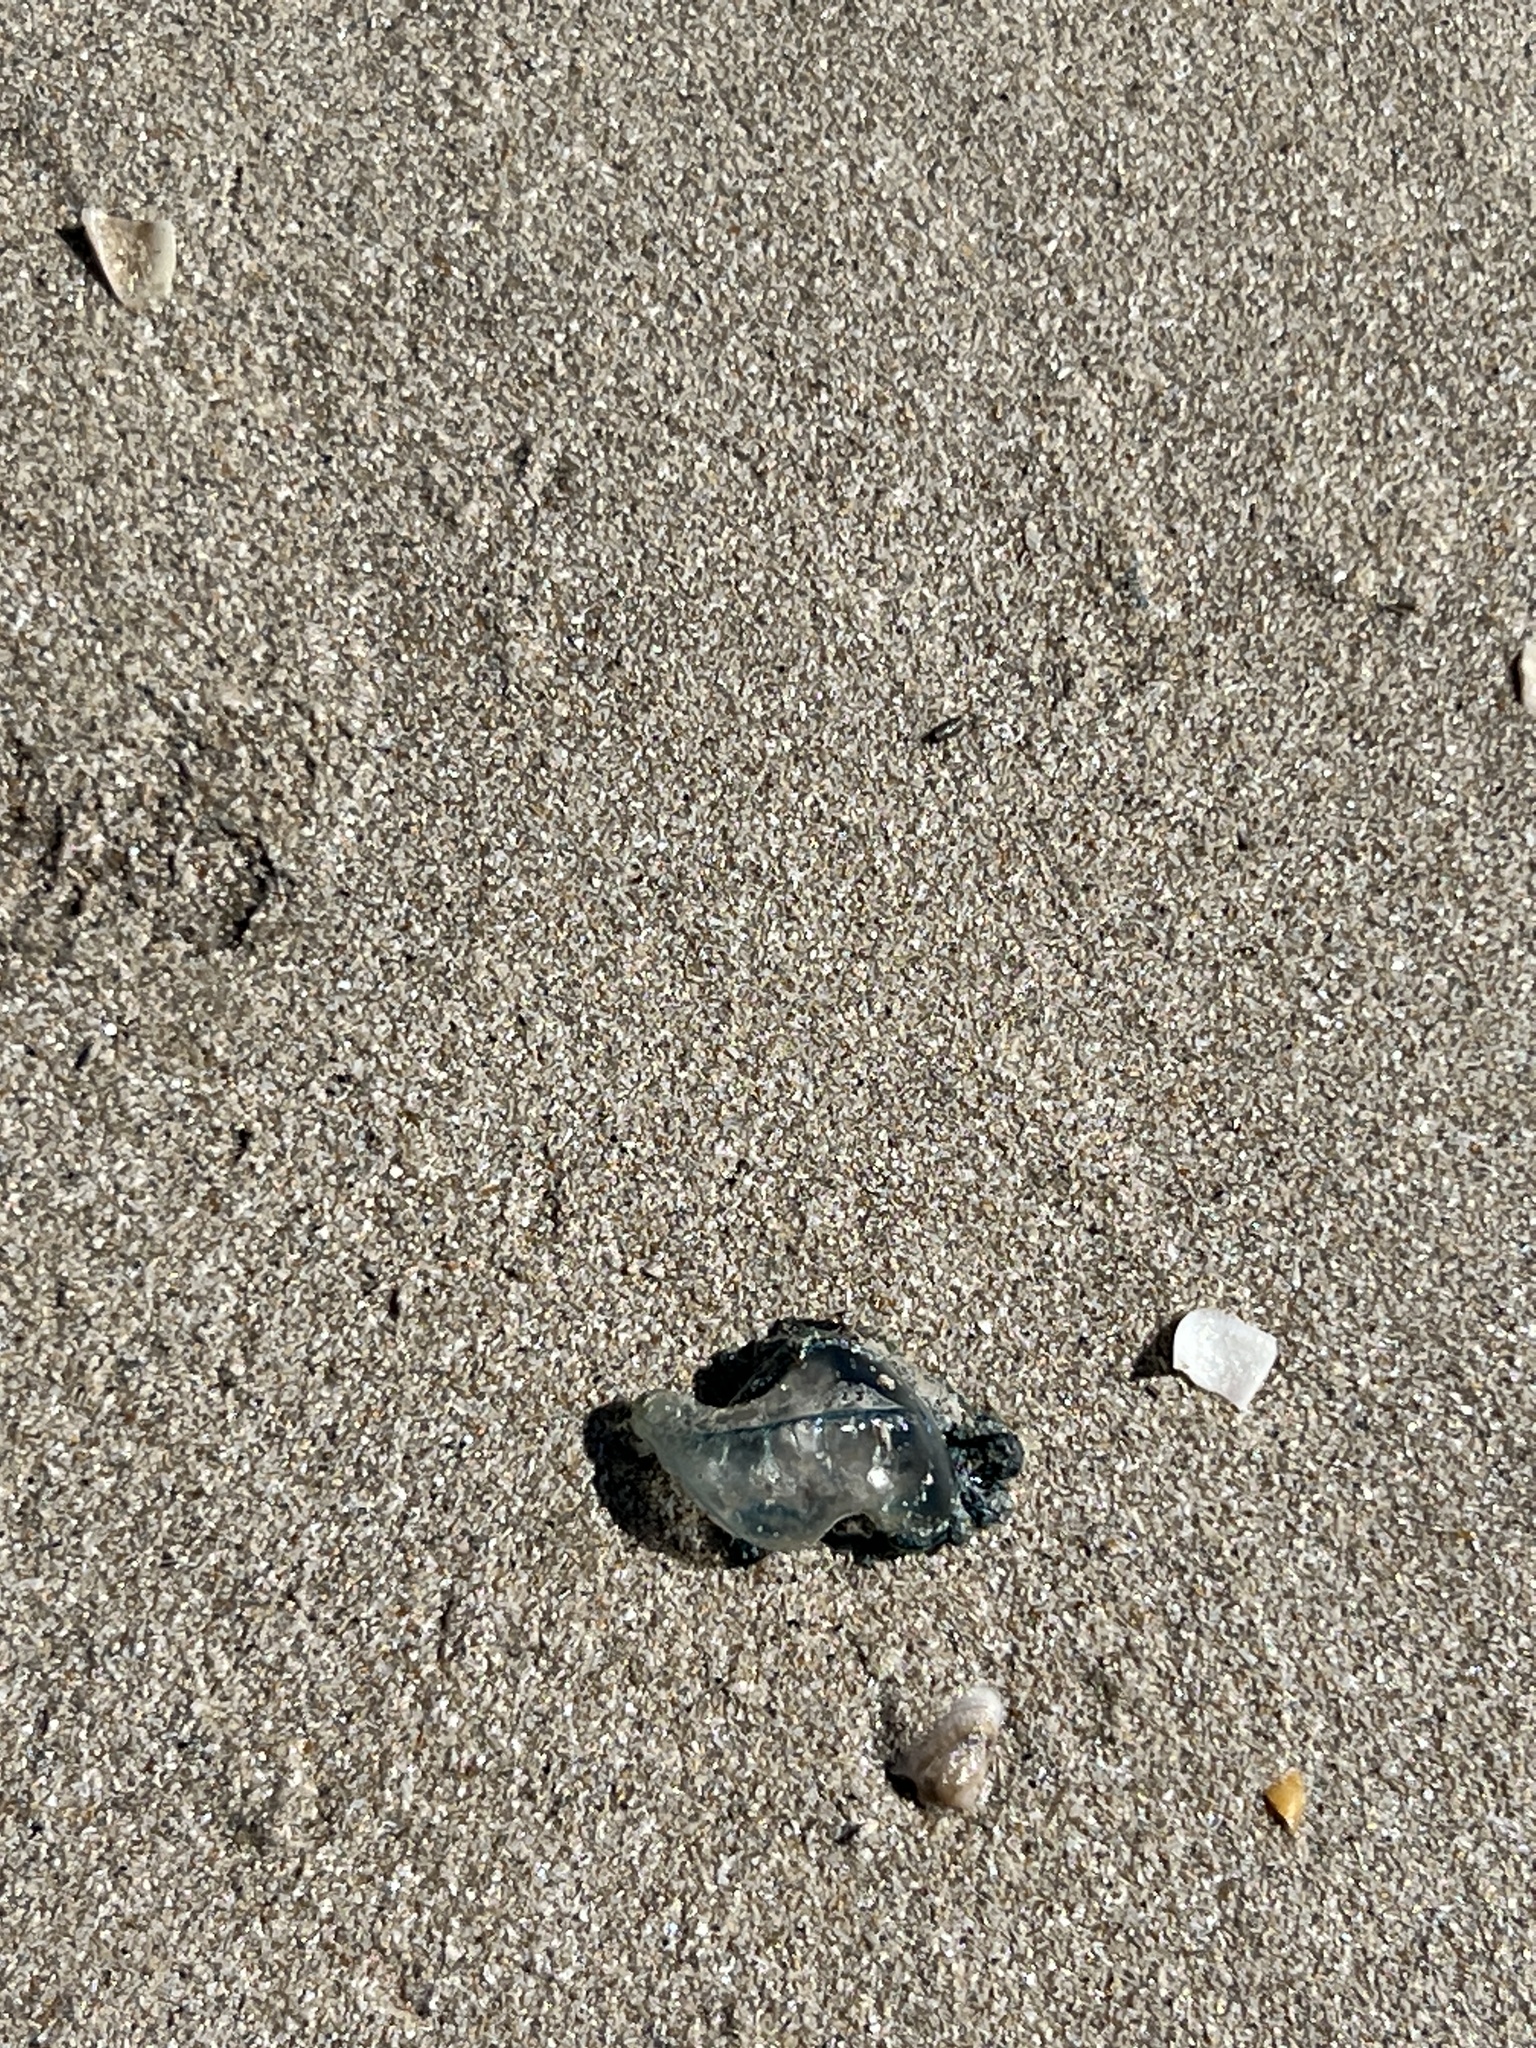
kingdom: Animalia
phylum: Cnidaria
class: Hydrozoa
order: Siphonophorae
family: Physaliidae
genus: Physalia
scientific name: Physalia physalis
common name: Portuguese man-of-war
